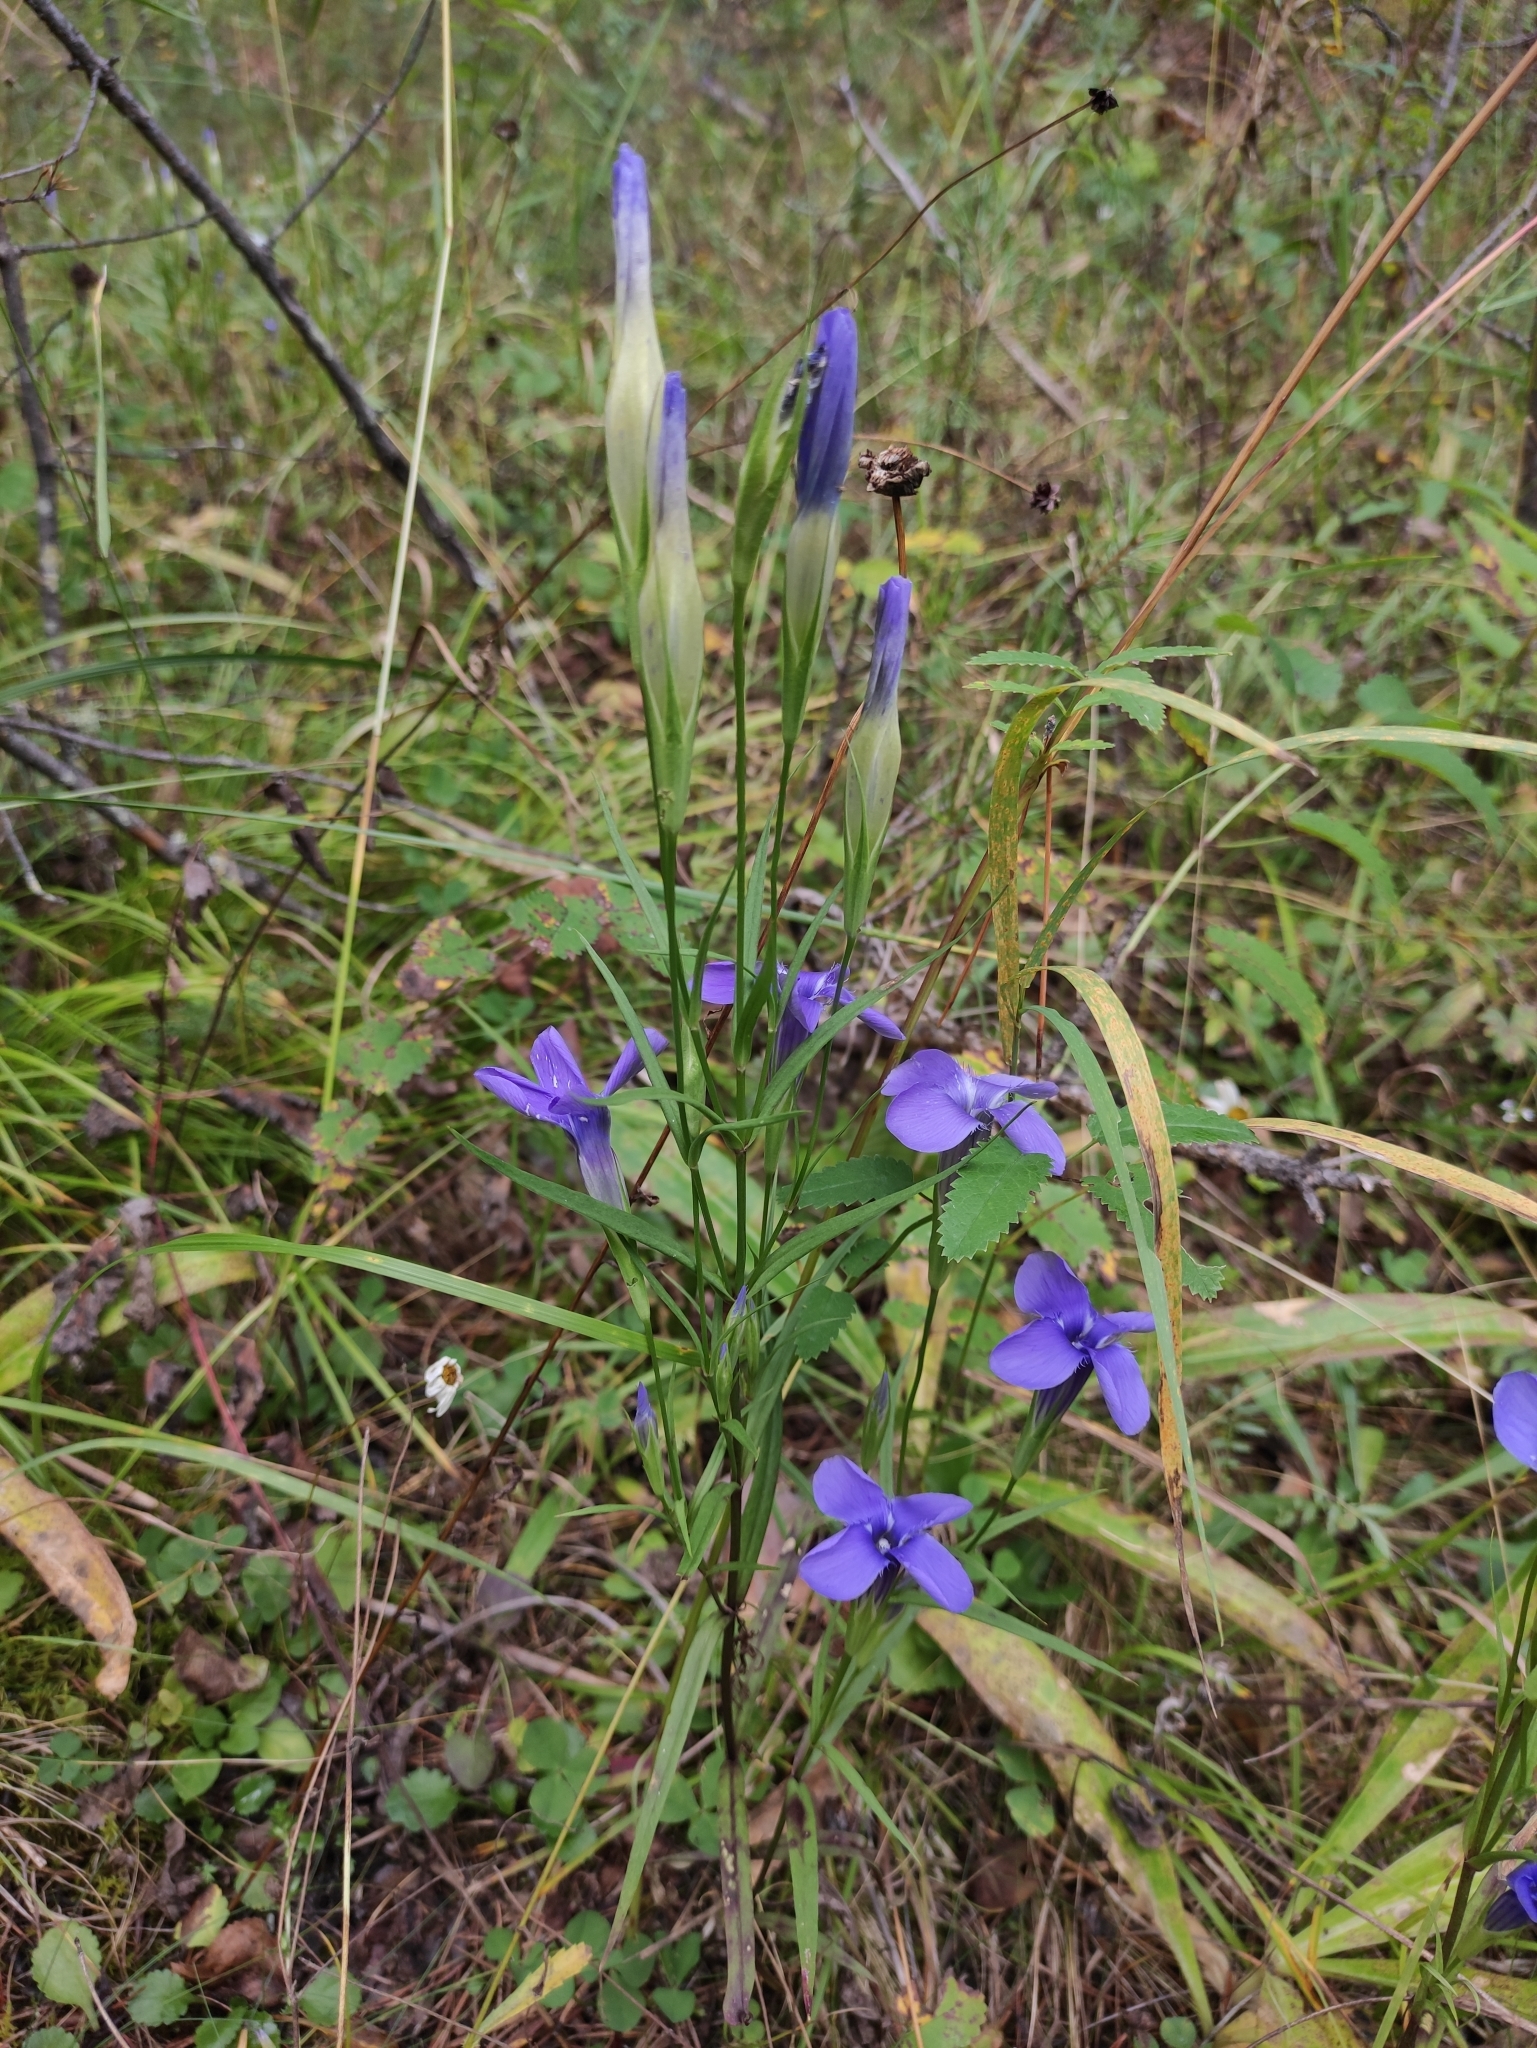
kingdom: Plantae
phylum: Tracheophyta
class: Magnoliopsida
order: Gentianales
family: Gentianaceae
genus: Gentianopsis
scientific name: Gentianopsis barbata
